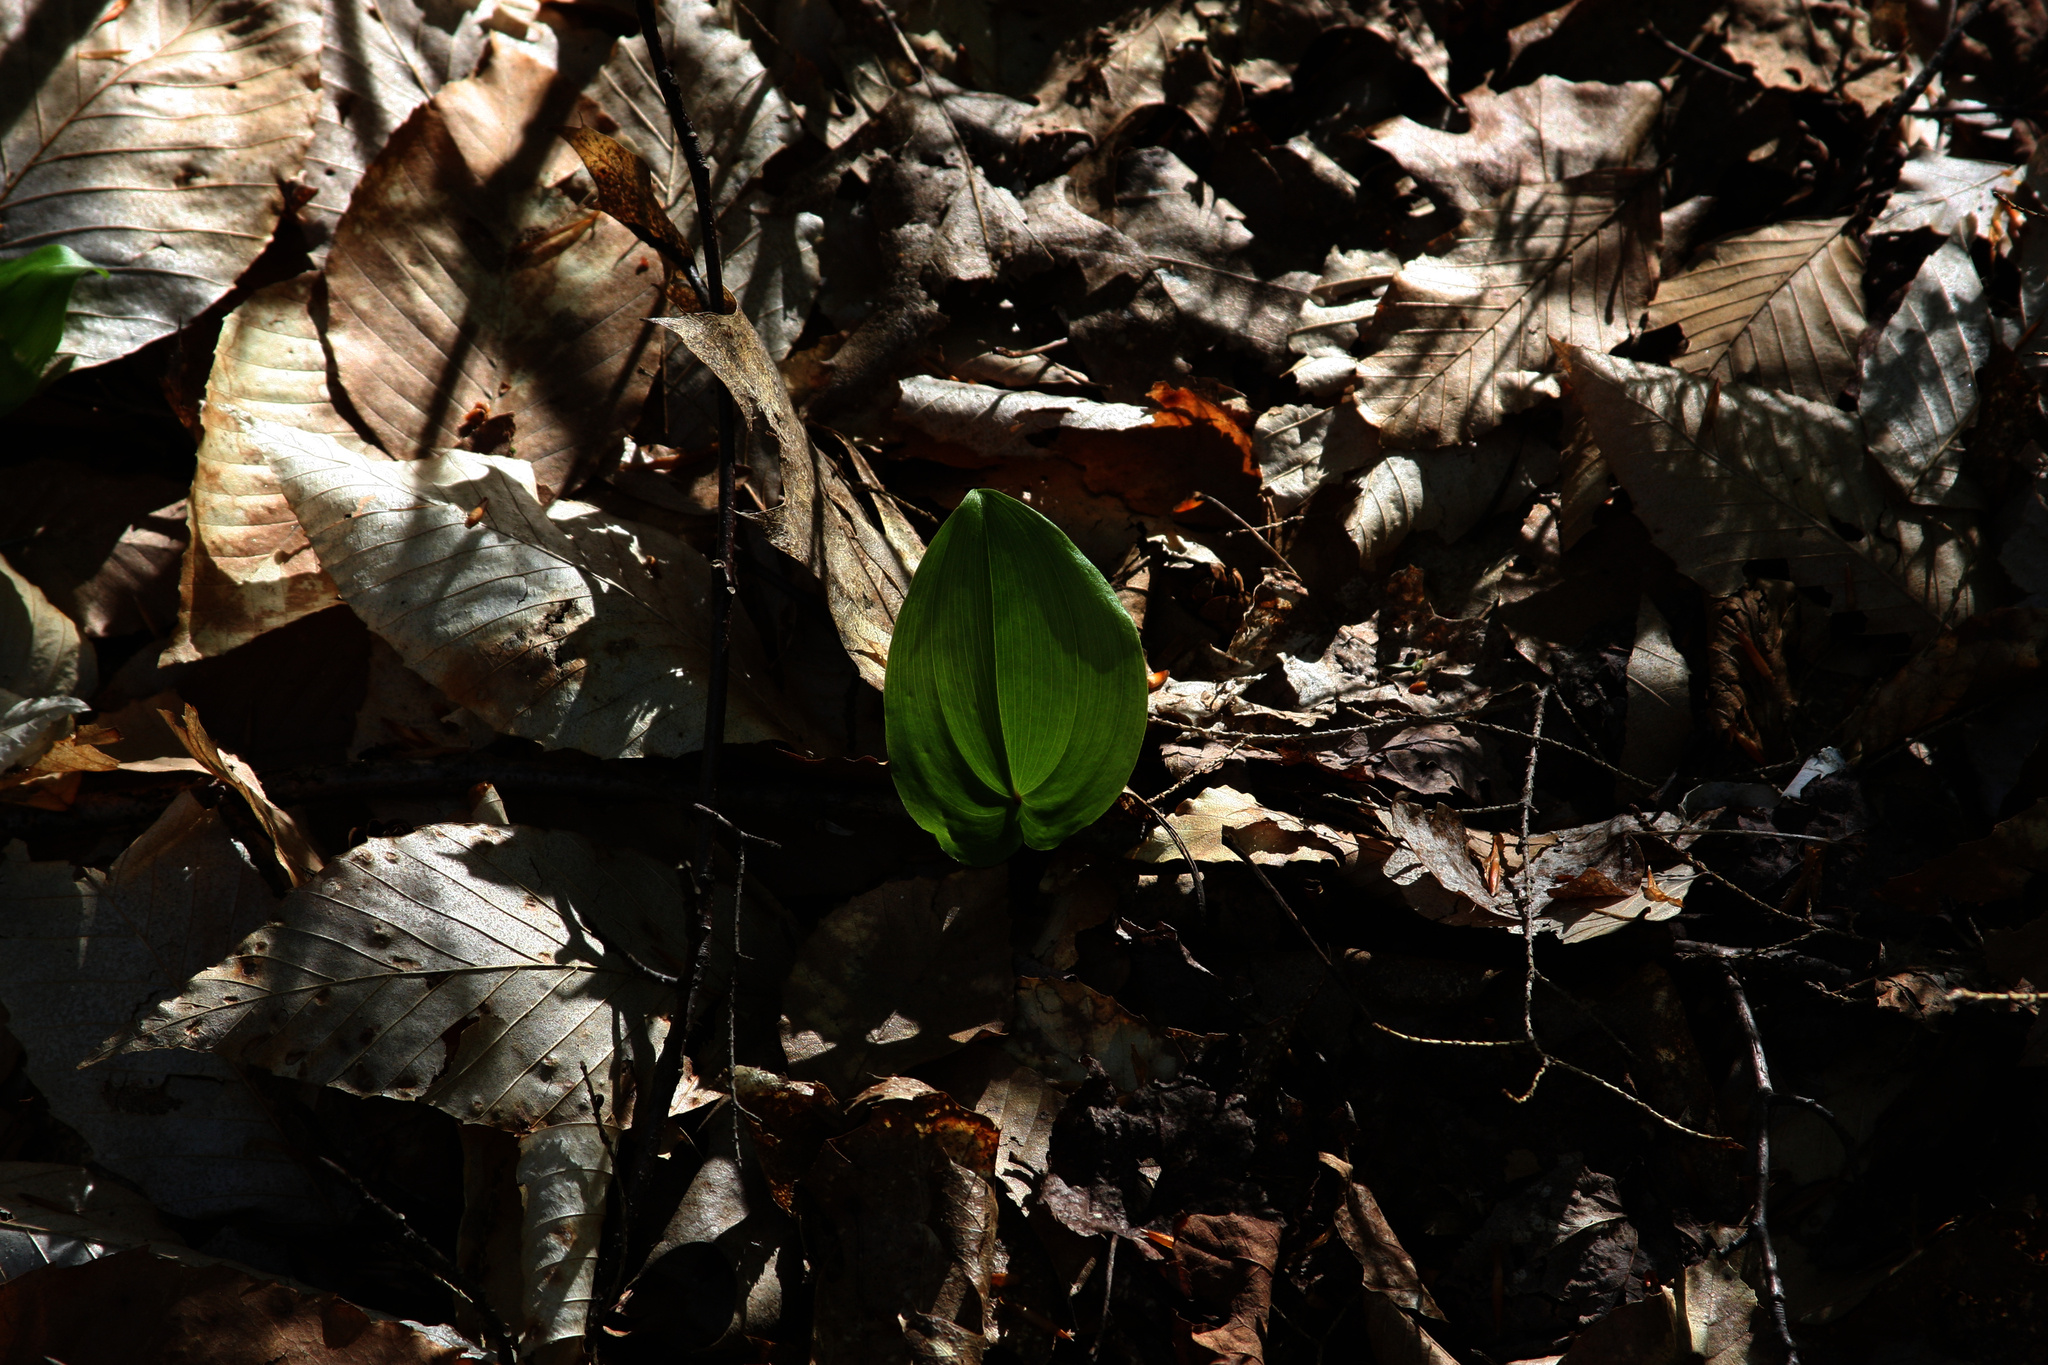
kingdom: Plantae
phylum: Tracheophyta
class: Liliopsida
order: Asparagales
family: Asparagaceae
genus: Maianthemum
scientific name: Maianthemum canadense
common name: False lily-of-the-valley
